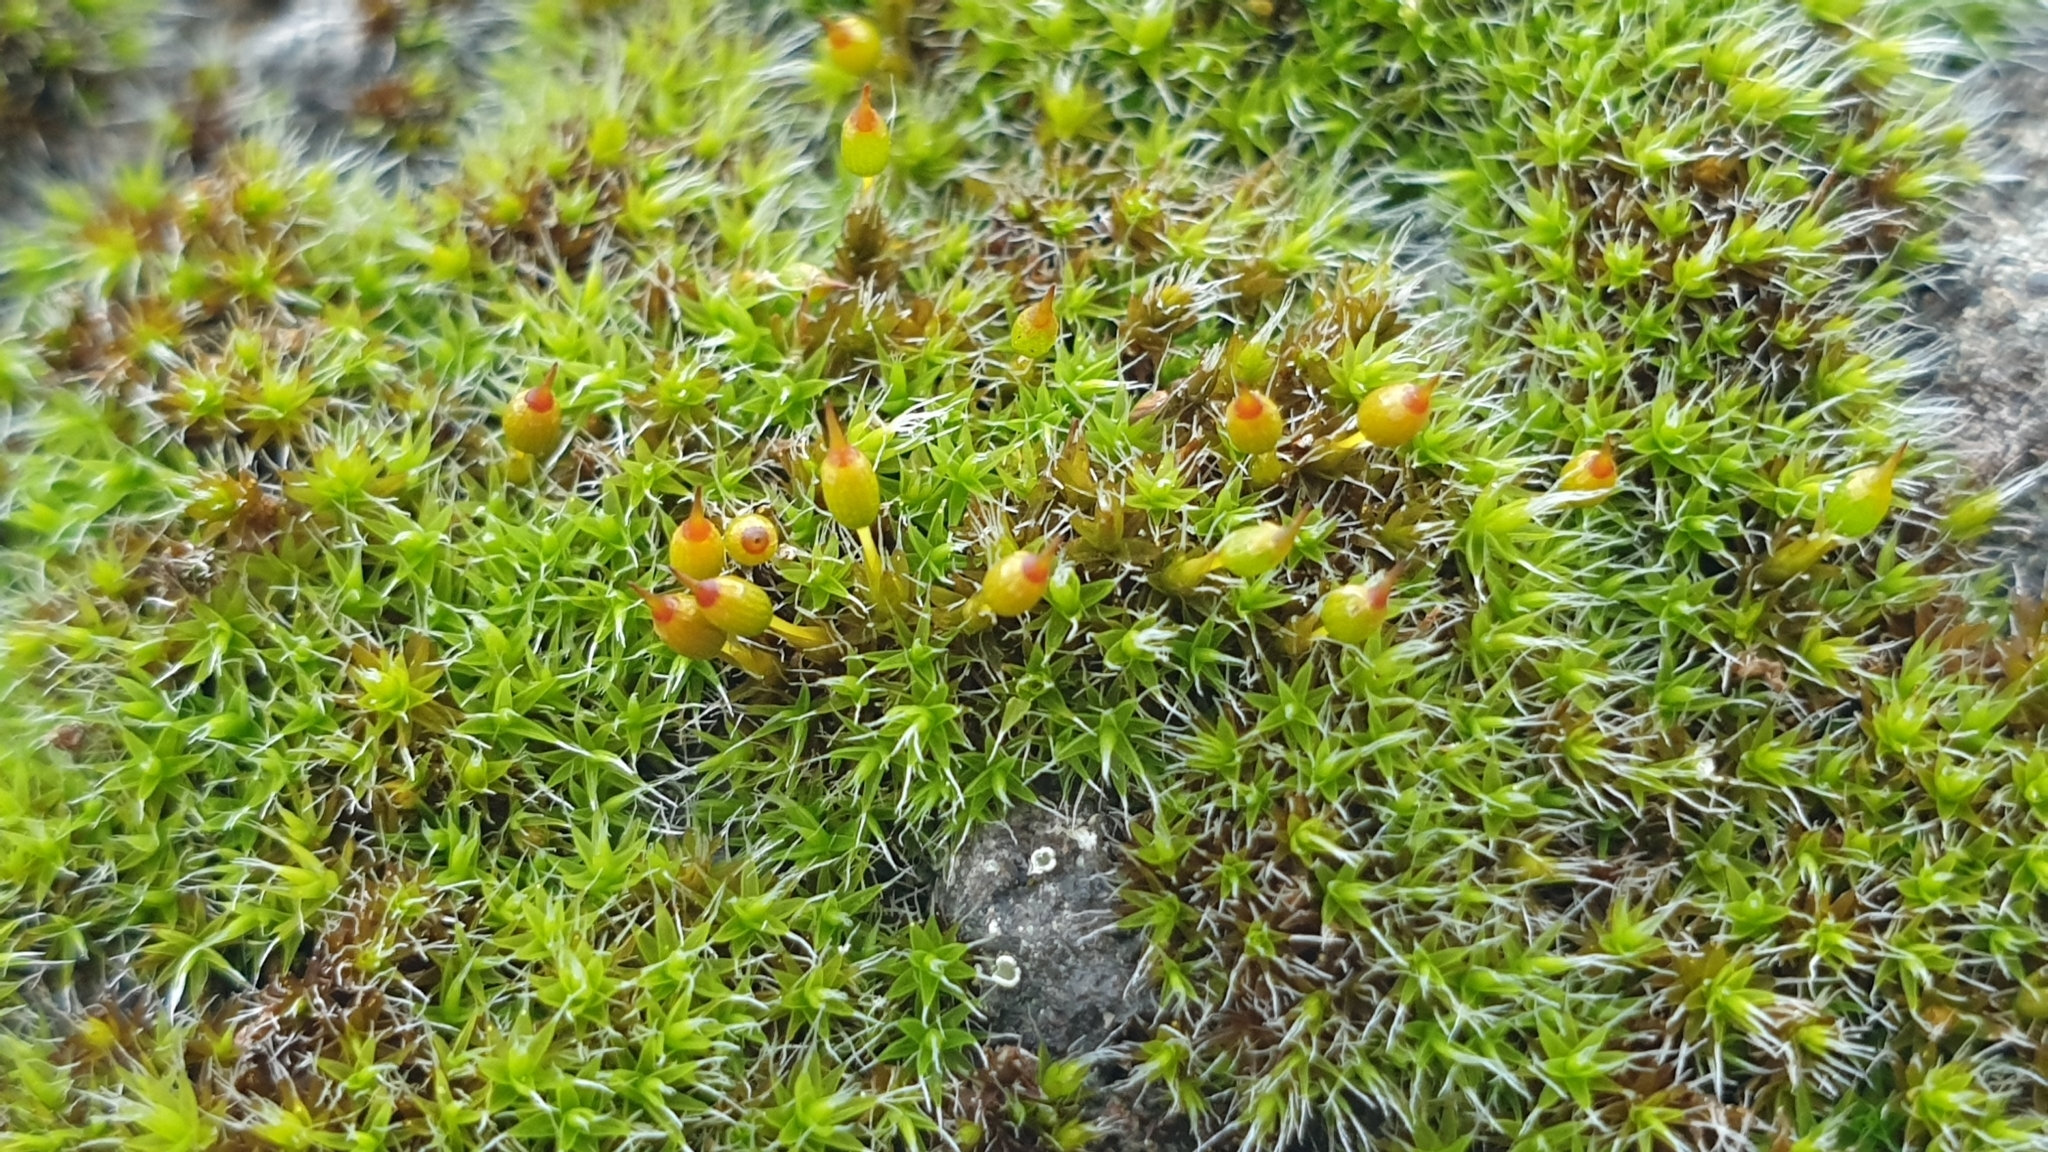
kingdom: Plantae
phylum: Bryophyta
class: Bryopsida
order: Grimmiales
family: Grimmiaceae
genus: Grimmia
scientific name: Grimmia laevigata
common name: Hoary grimmia
